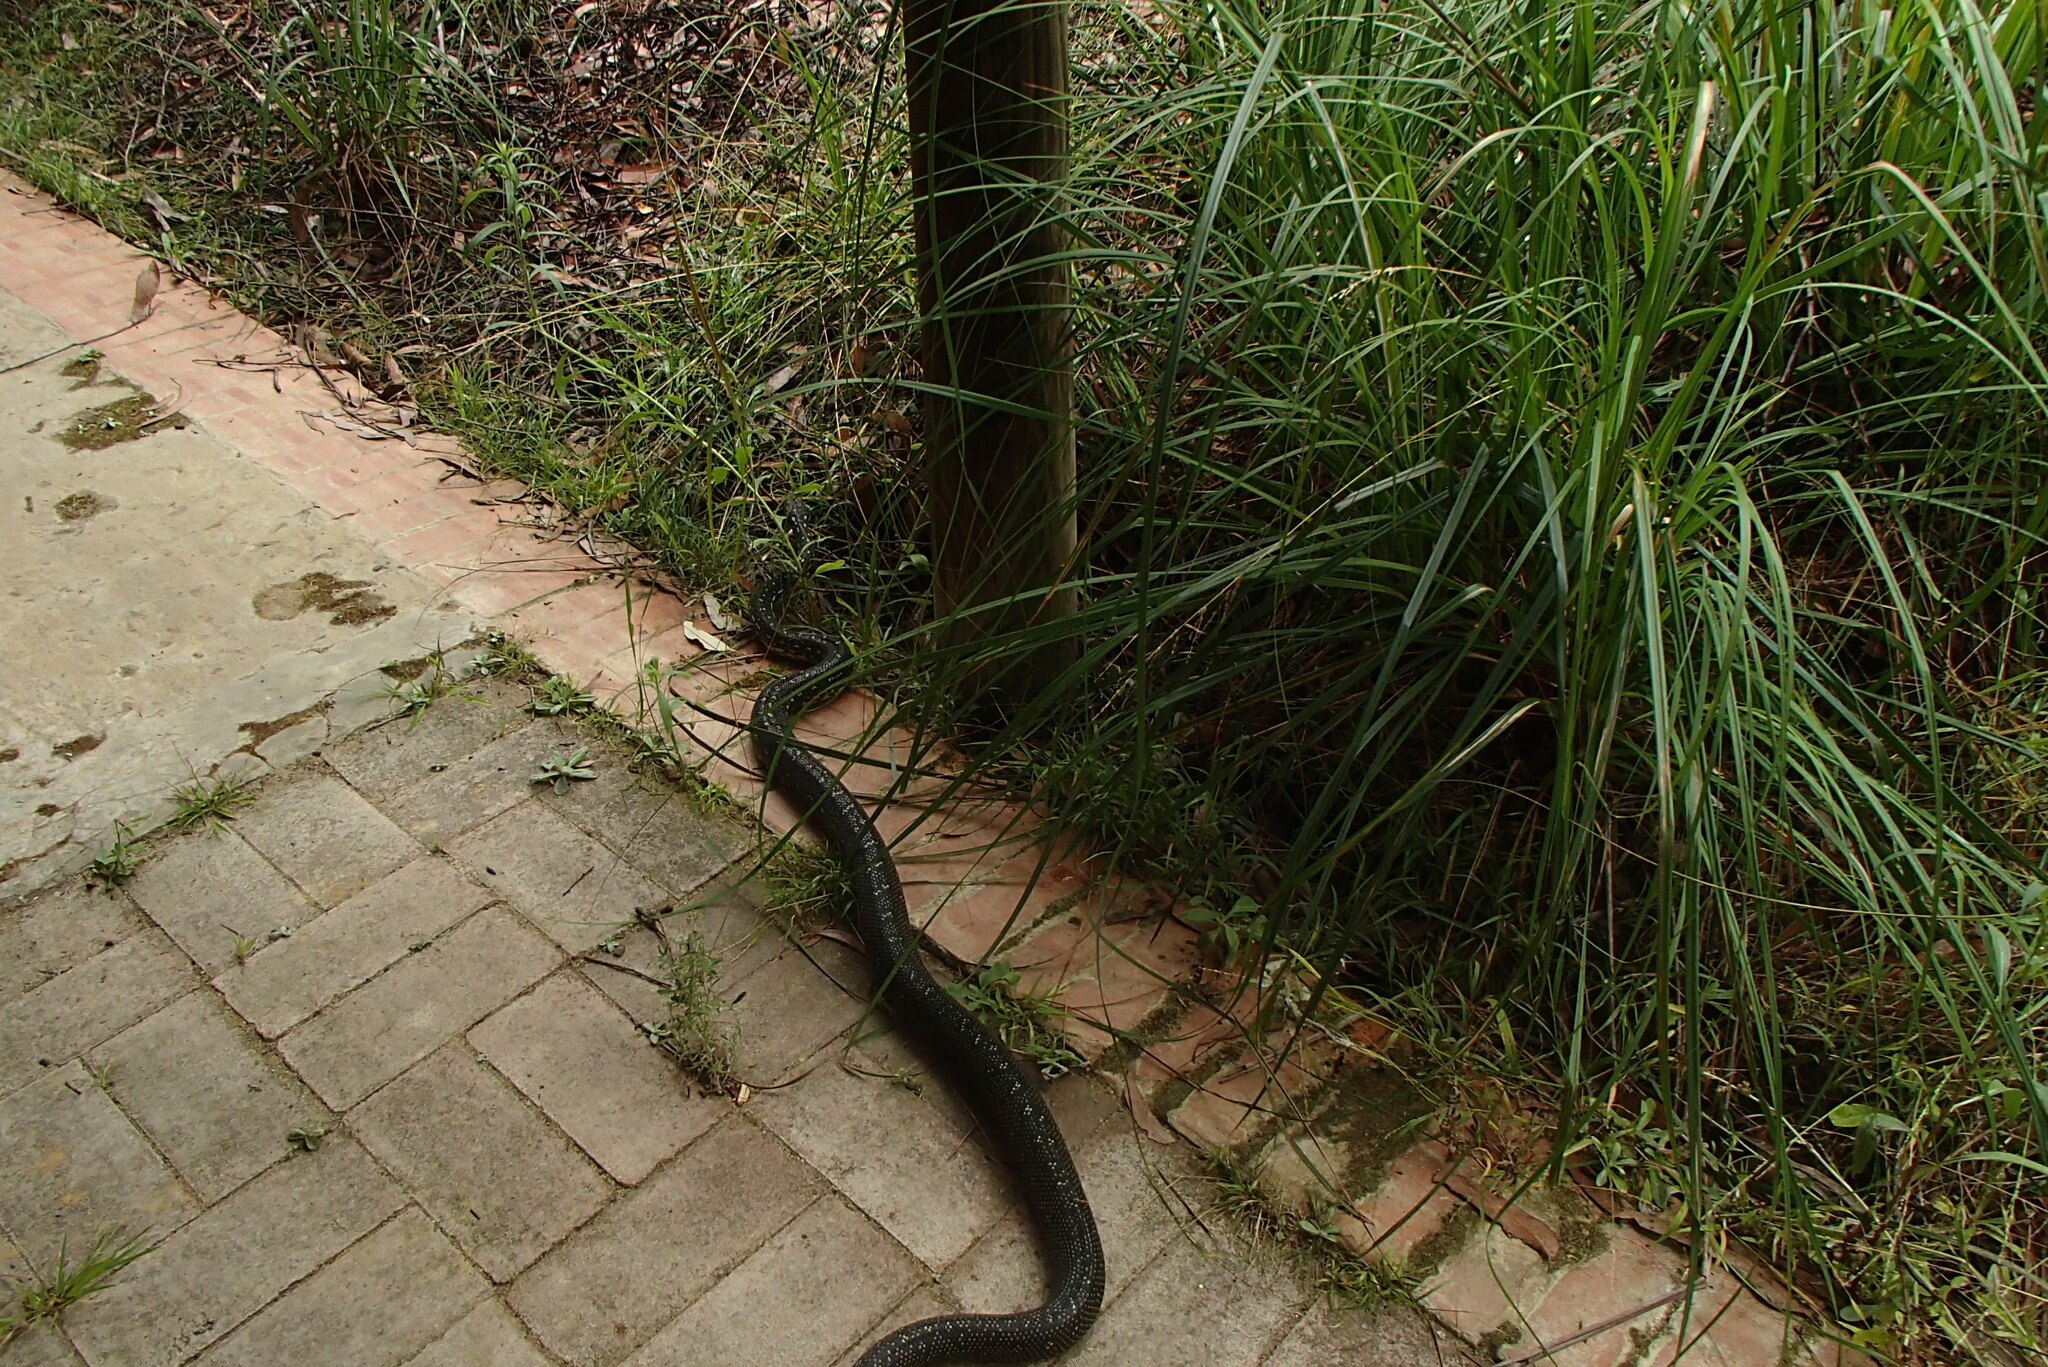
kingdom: Animalia
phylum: Chordata
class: Squamata
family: Pythonidae
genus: Morelia
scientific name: Morelia spilota
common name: Carpet python
